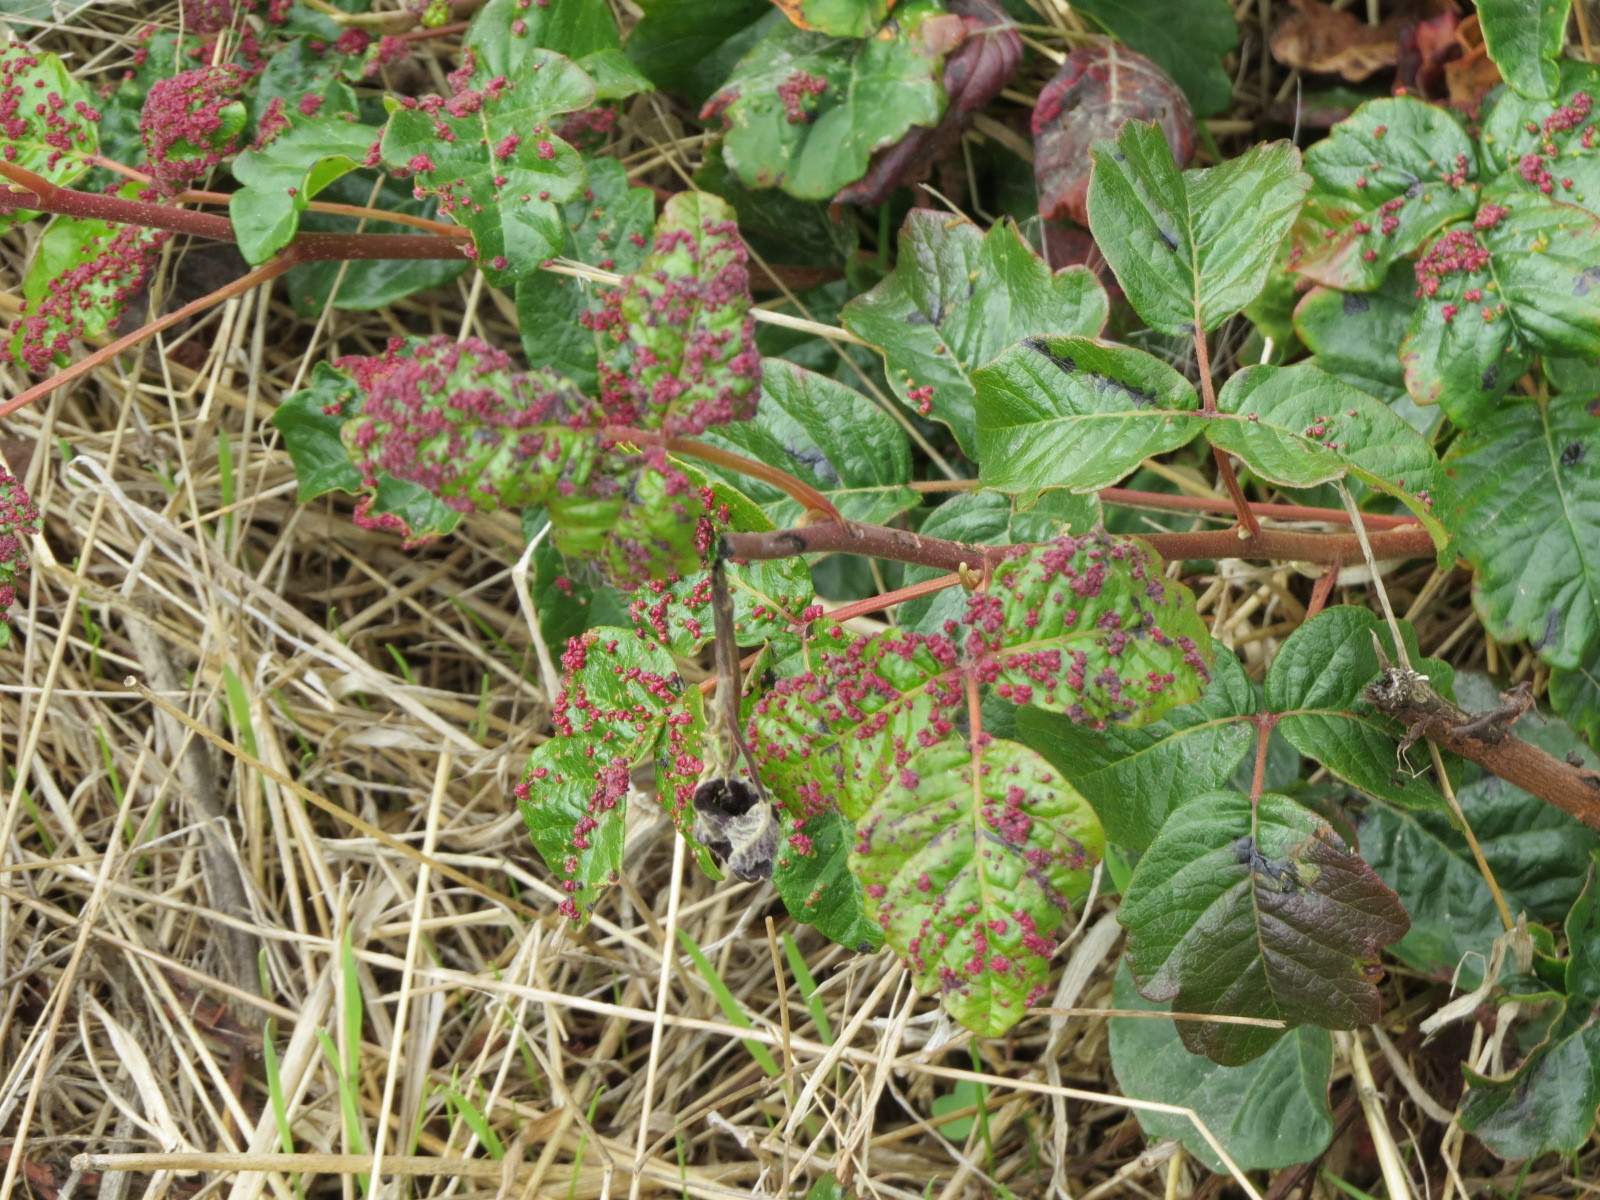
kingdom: Animalia
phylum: Arthropoda
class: Arachnida
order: Trombidiformes
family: Eriophyidae
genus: Aculops
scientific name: Aculops
